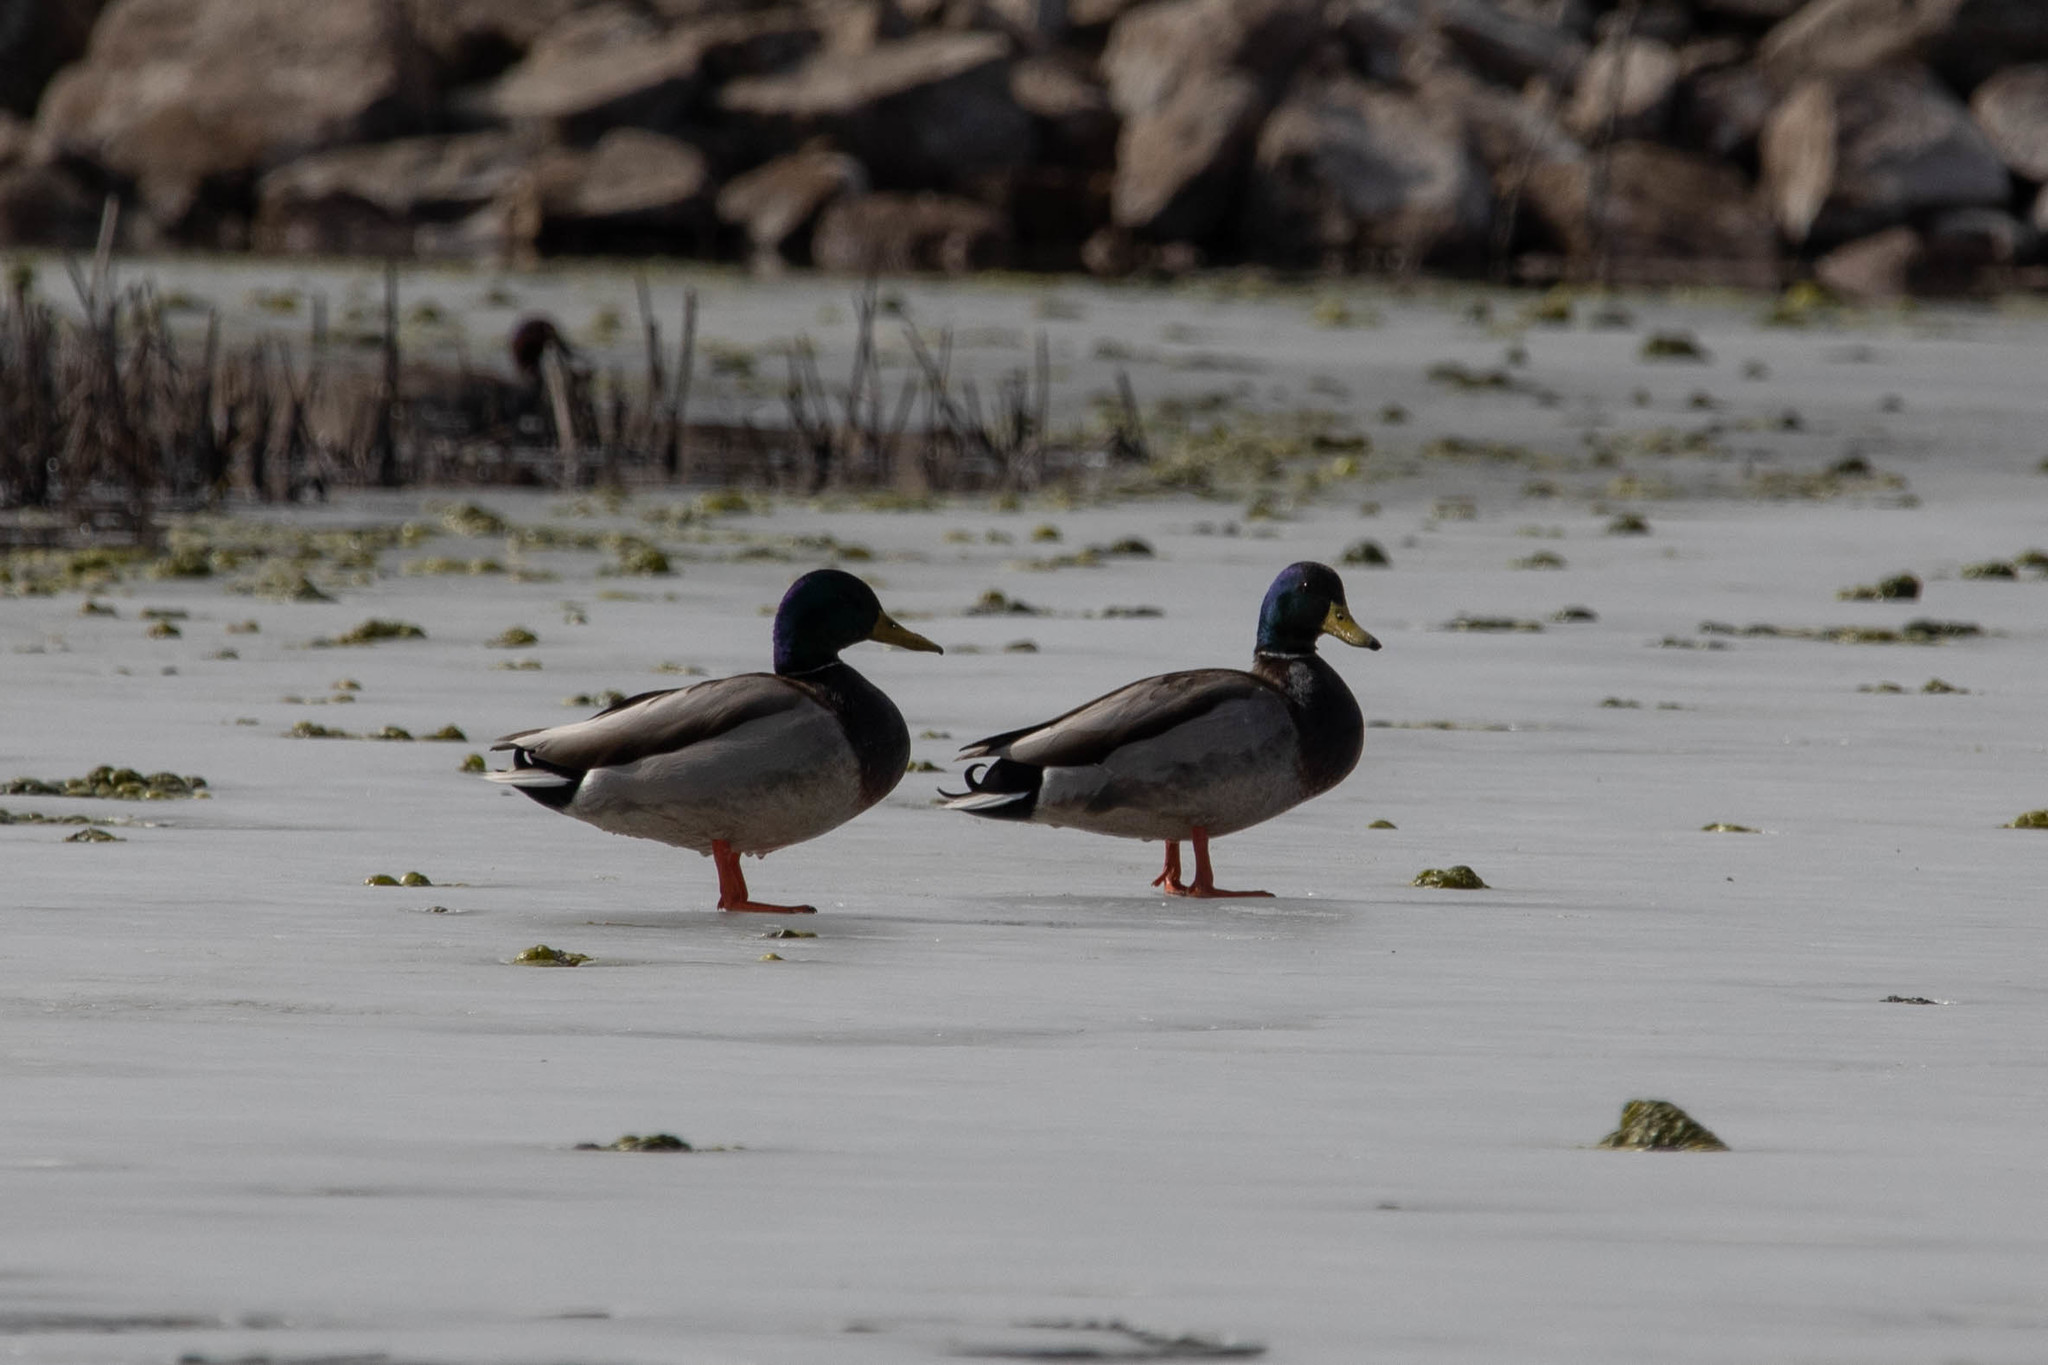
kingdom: Animalia
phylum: Chordata
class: Aves
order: Anseriformes
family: Anatidae
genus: Anas
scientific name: Anas platyrhynchos
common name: Mallard
